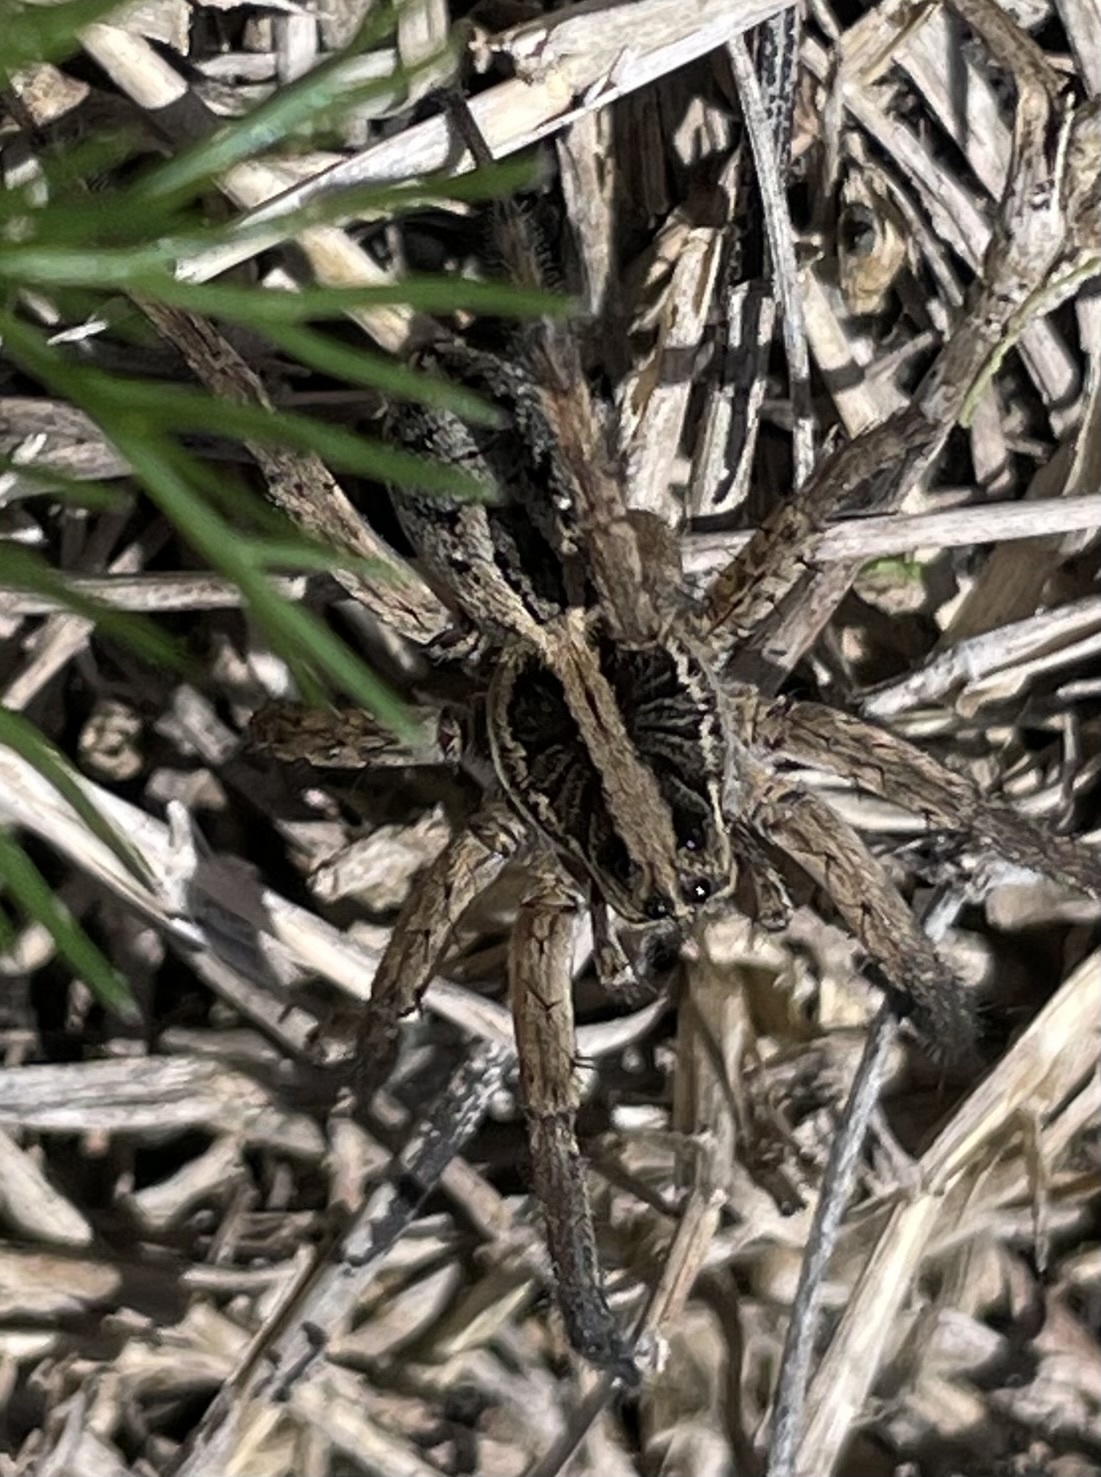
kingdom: Animalia
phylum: Arthropoda
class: Arachnida
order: Araneae
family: Lycosidae
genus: Schizocosa
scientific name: Schizocosa avida
